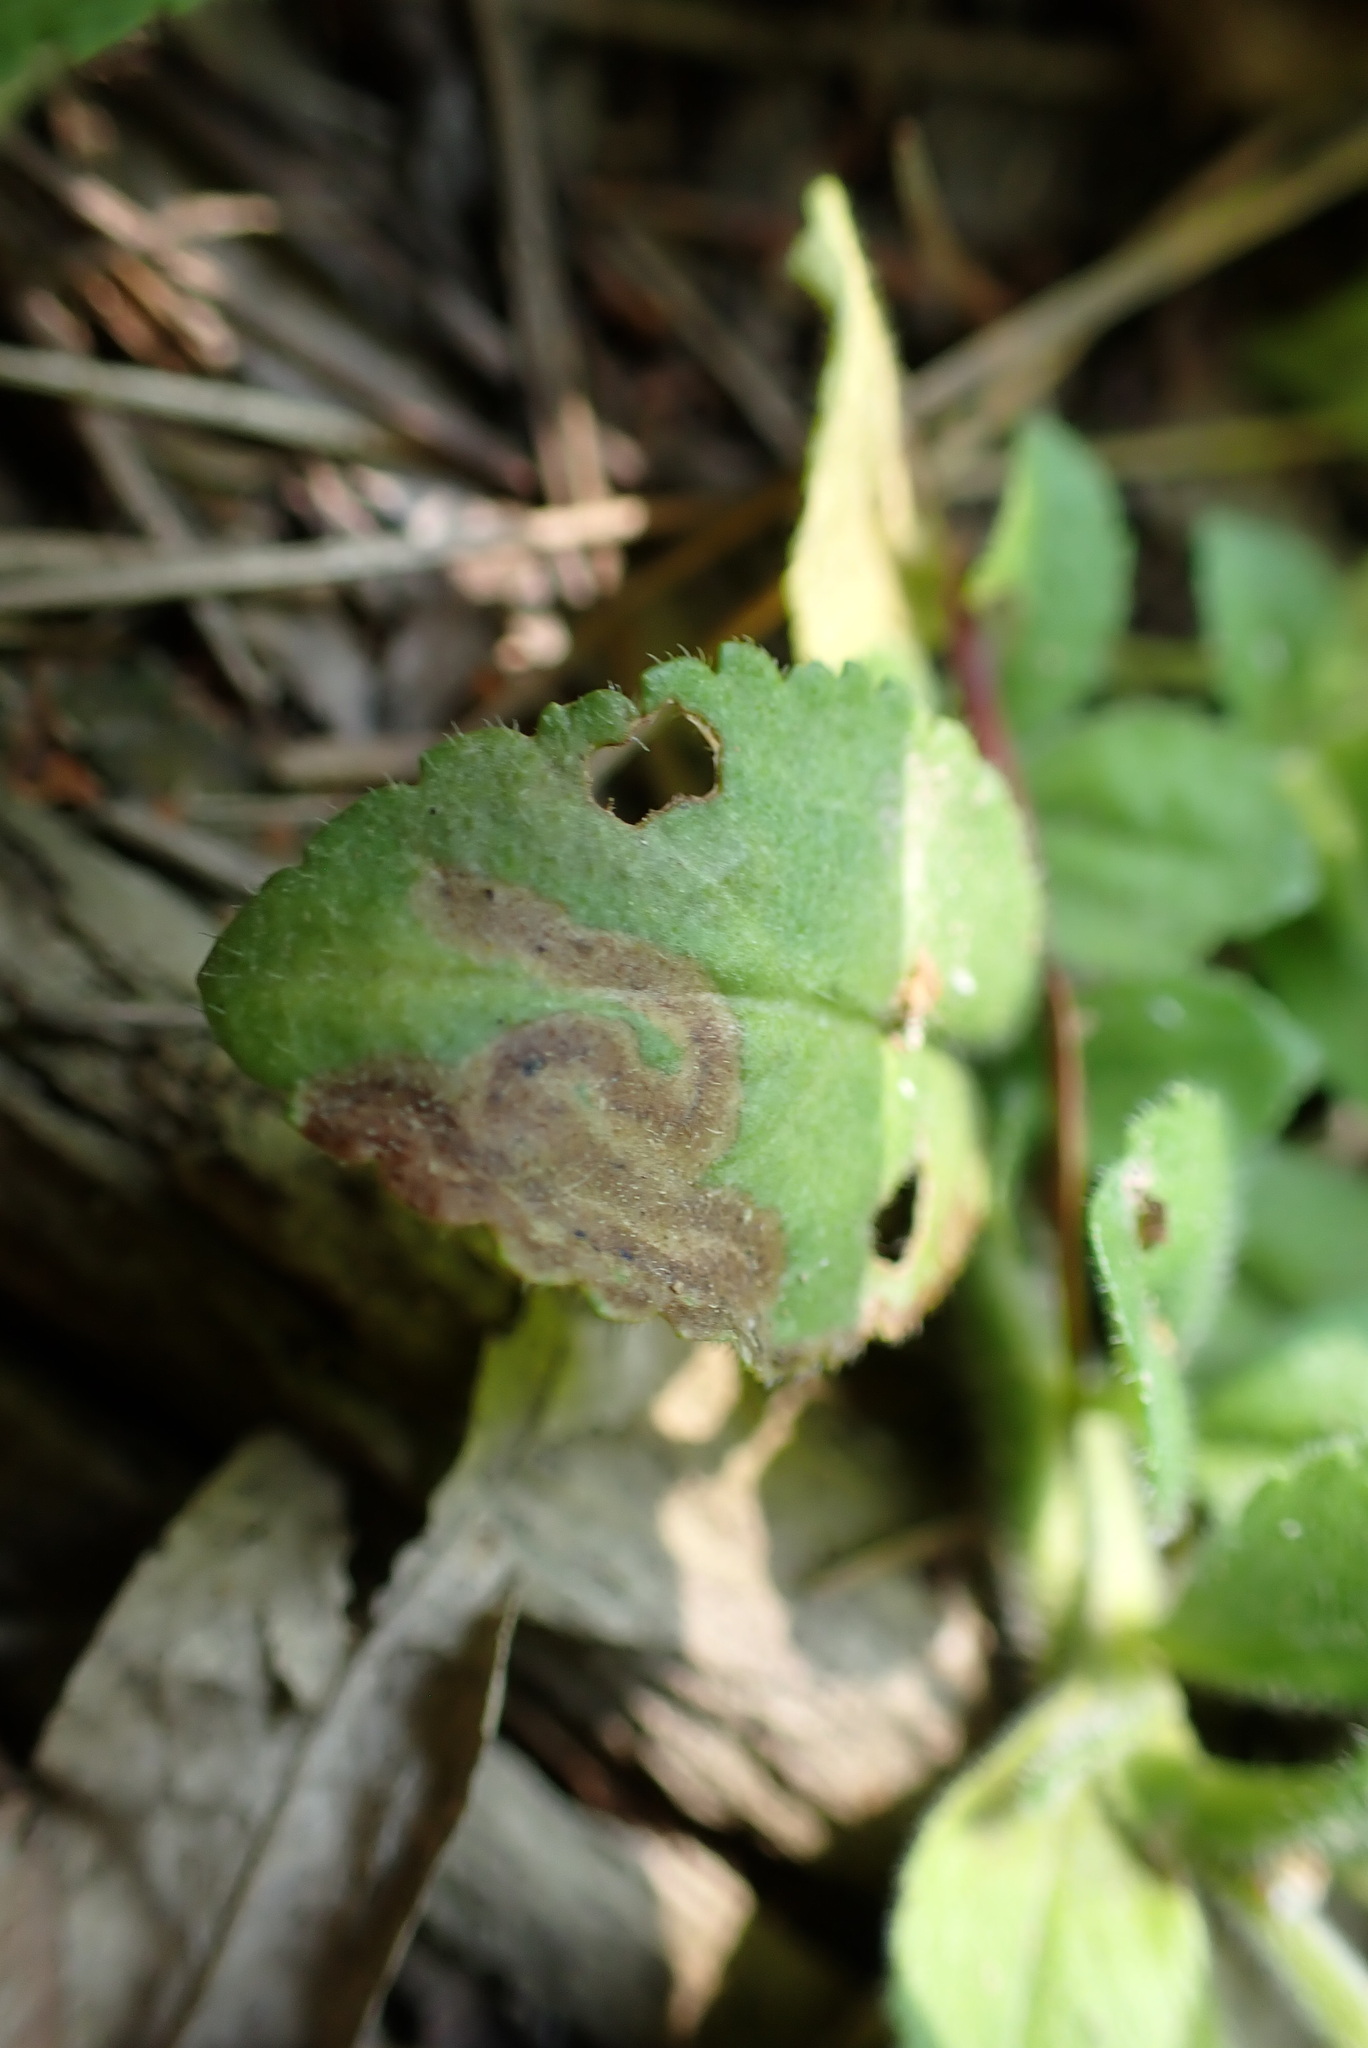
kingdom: Animalia
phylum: Arthropoda
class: Insecta
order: Diptera
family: Agromyzidae
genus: Phytomyza
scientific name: Phytomyza crassiseta
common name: Leaf-miner fly
